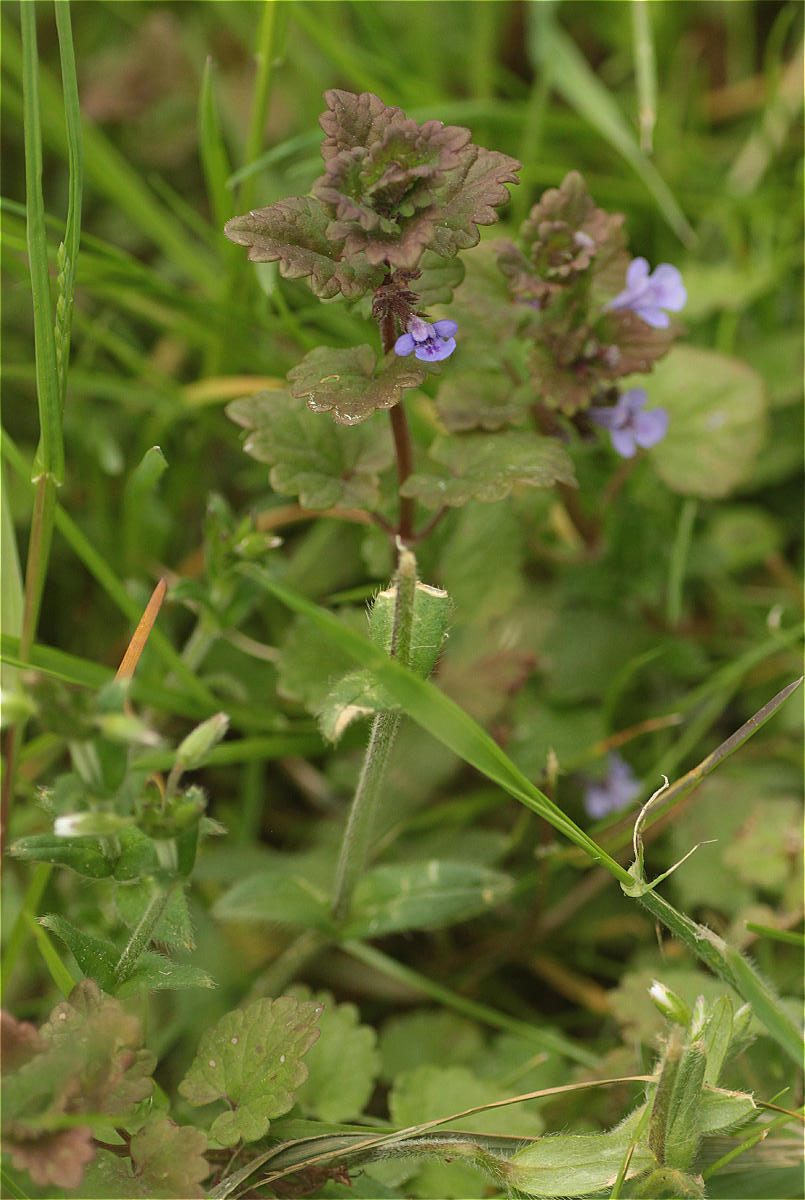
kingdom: Plantae
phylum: Tracheophyta
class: Magnoliopsida
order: Lamiales
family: Lamiaceae
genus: Glechoma
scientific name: Glechoma hederacea
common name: Ground ivy
